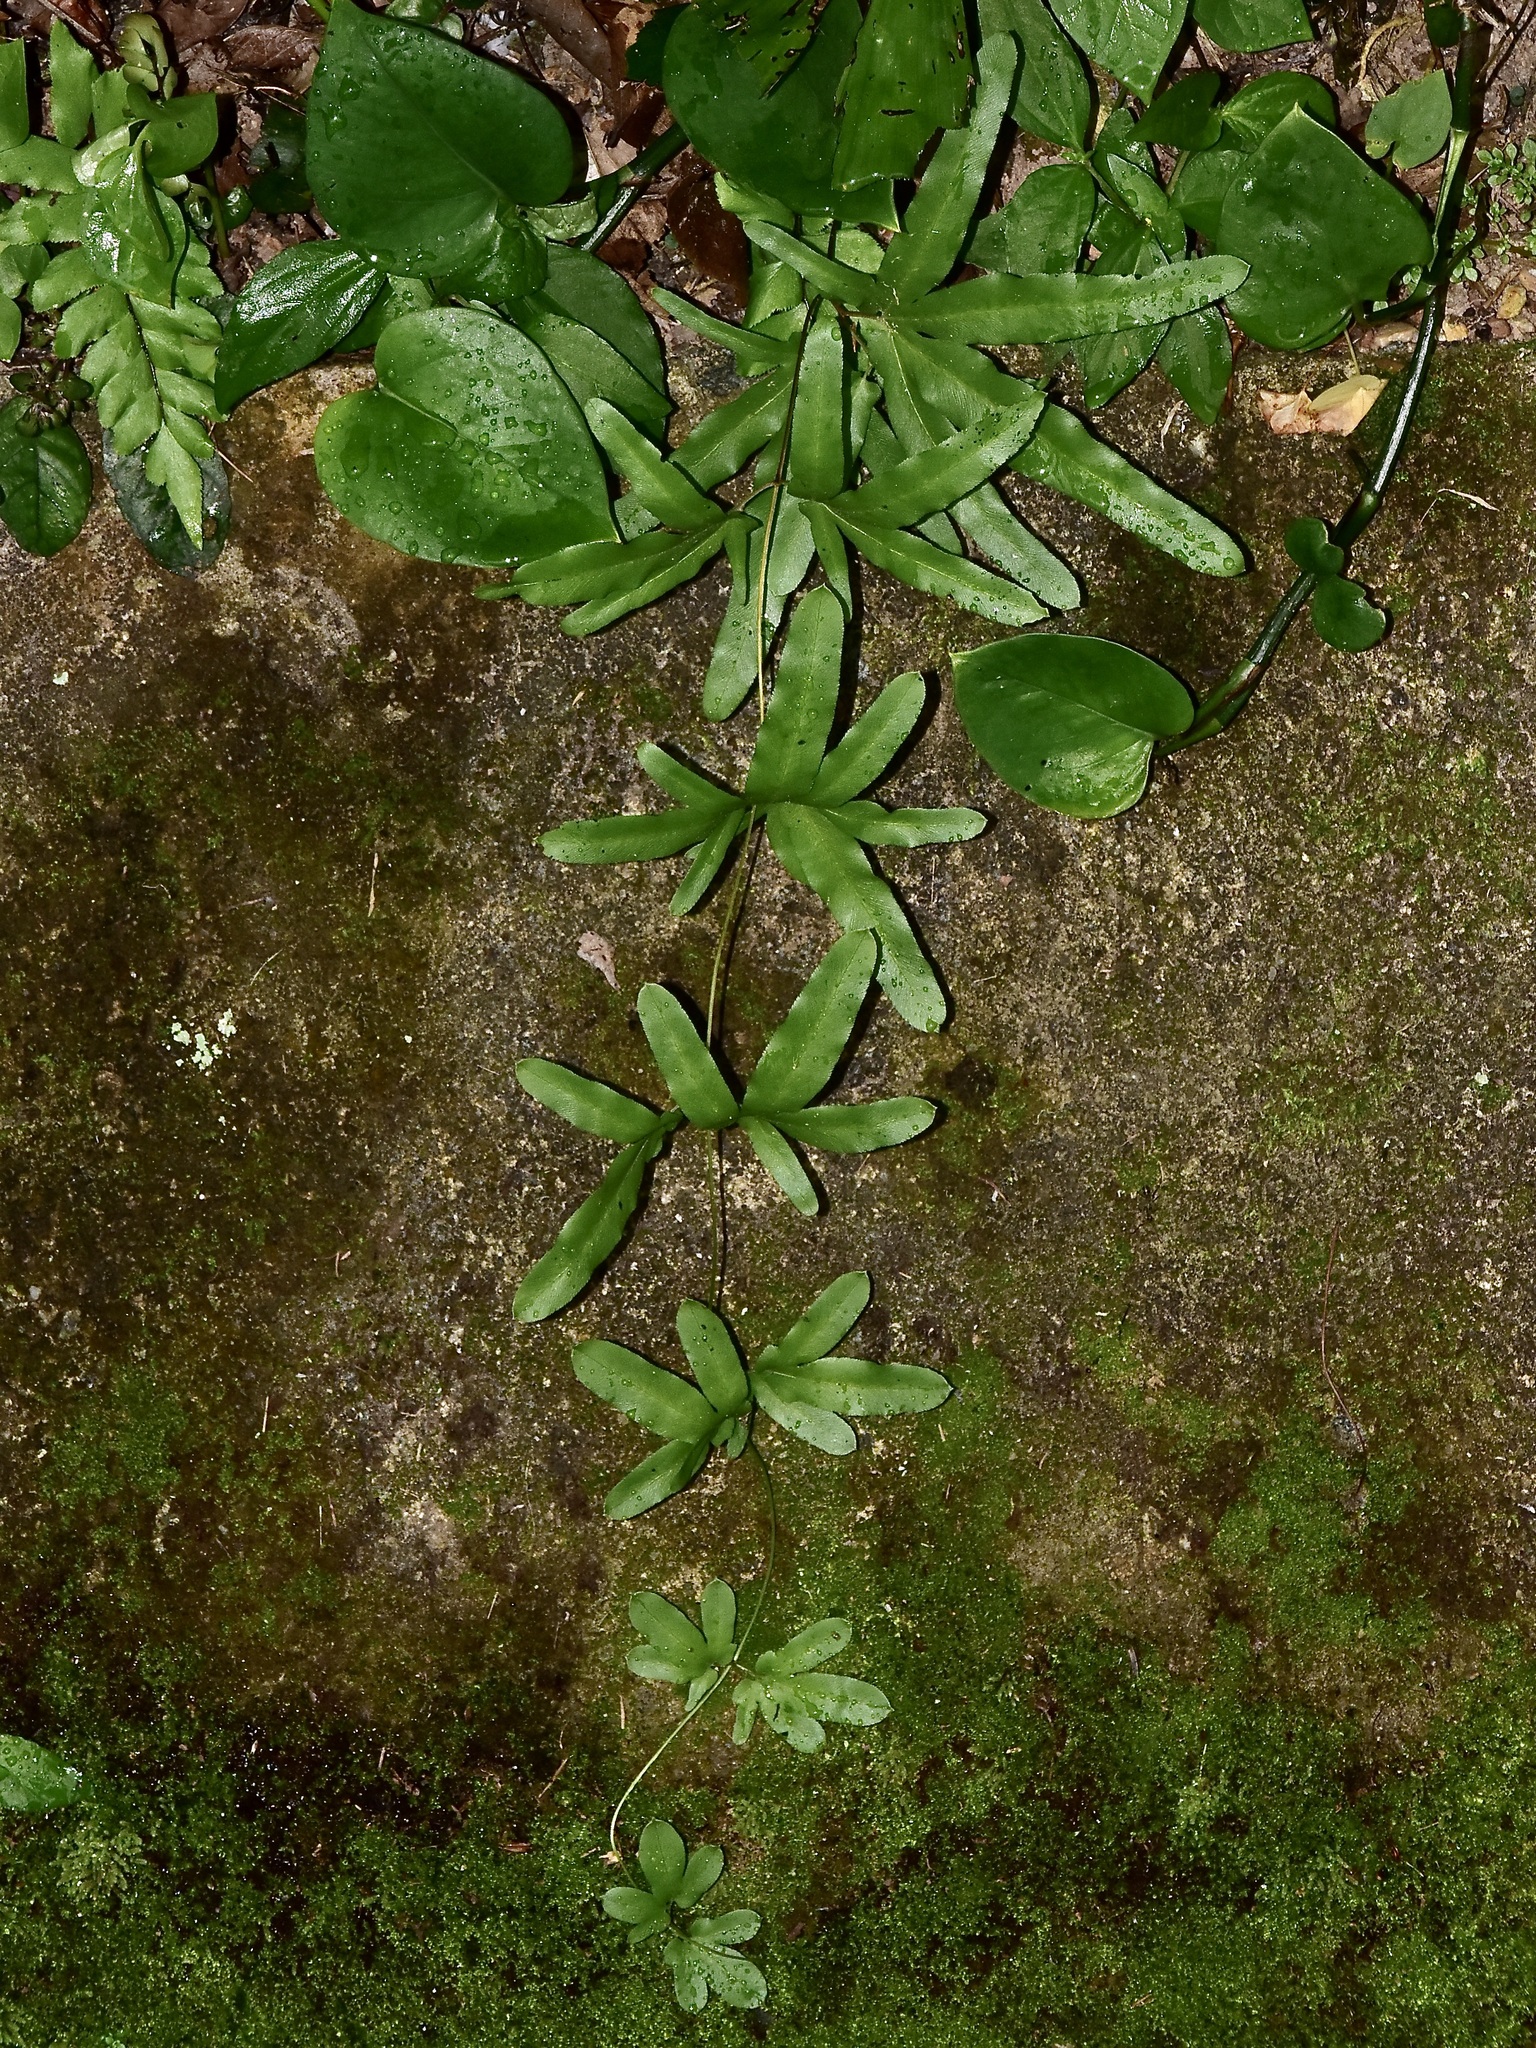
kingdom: Plantae
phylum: Tracheophyta
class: Polypodiopsida
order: Schizaeales
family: Lygodiaceae
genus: Lygodium
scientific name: Lygodium longifolium
